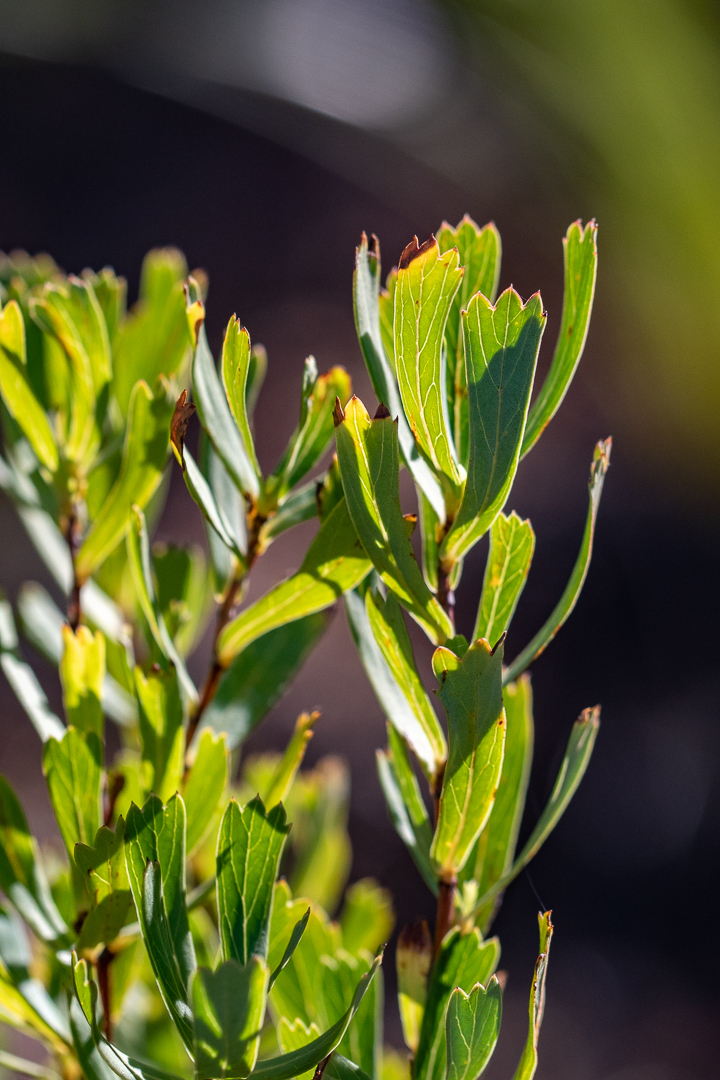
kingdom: Plantae
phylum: Tracheophyta
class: Magnoliopsida
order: Rosales
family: Rosaceae
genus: Cliffortia
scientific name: Cliffortia cuneata
